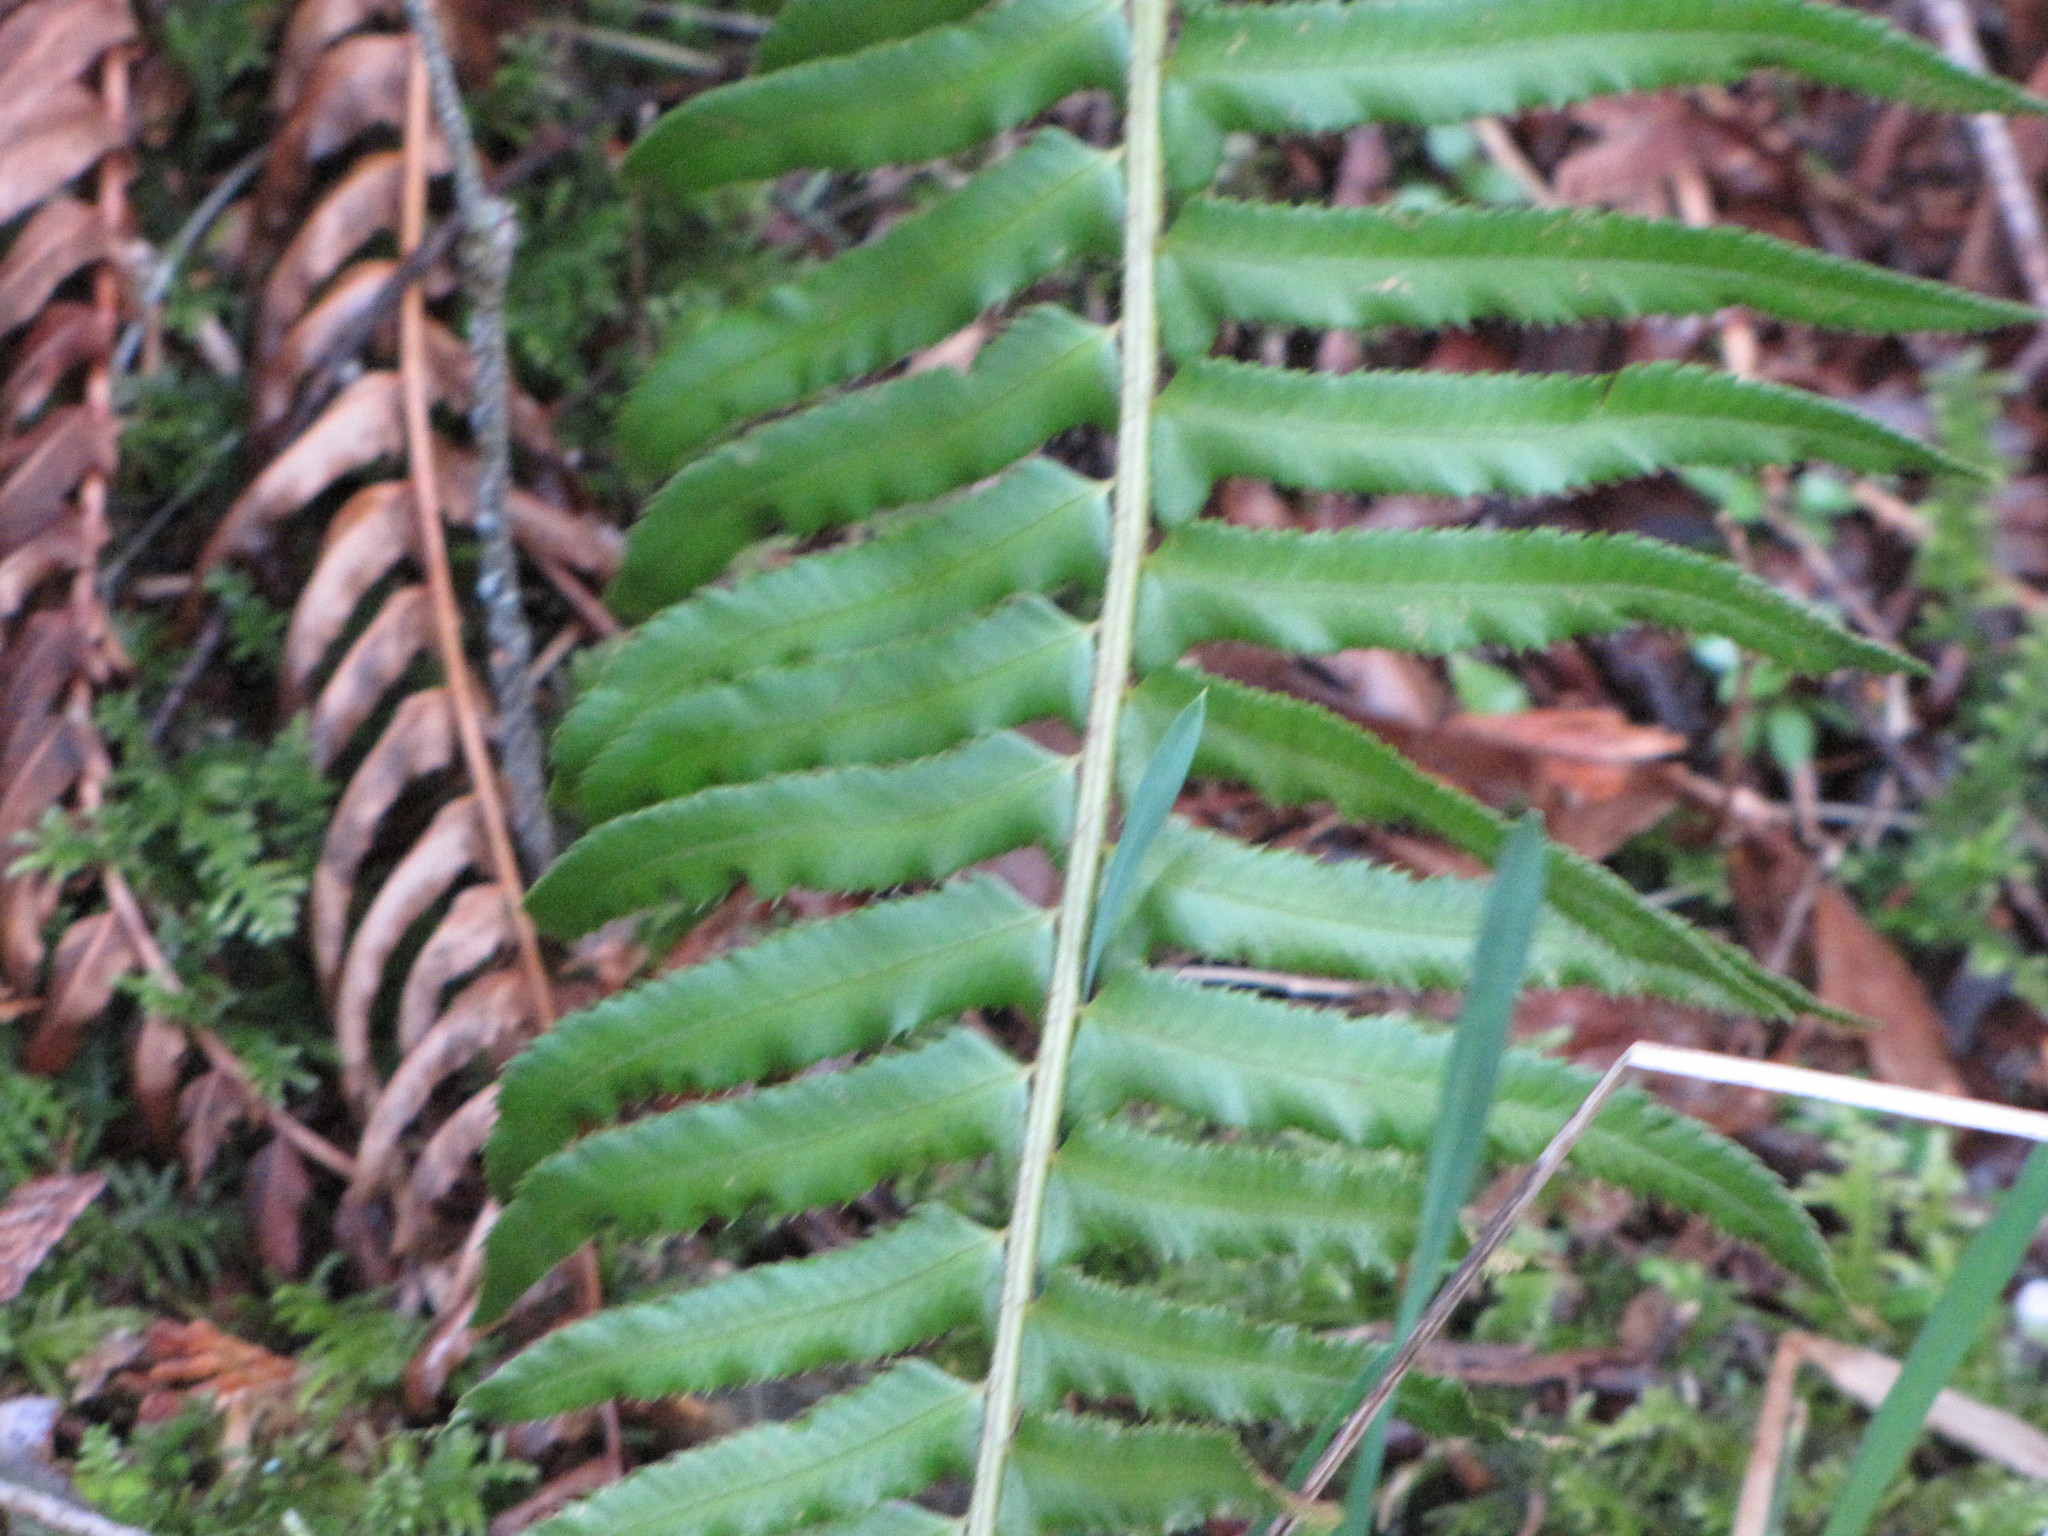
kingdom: Plantae
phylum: Tracheophyta
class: Polypodiopsida
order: Polypodiales
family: Dryopteridaceae
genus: Polystichum
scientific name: Polystichum munitum
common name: Western sword-fern
